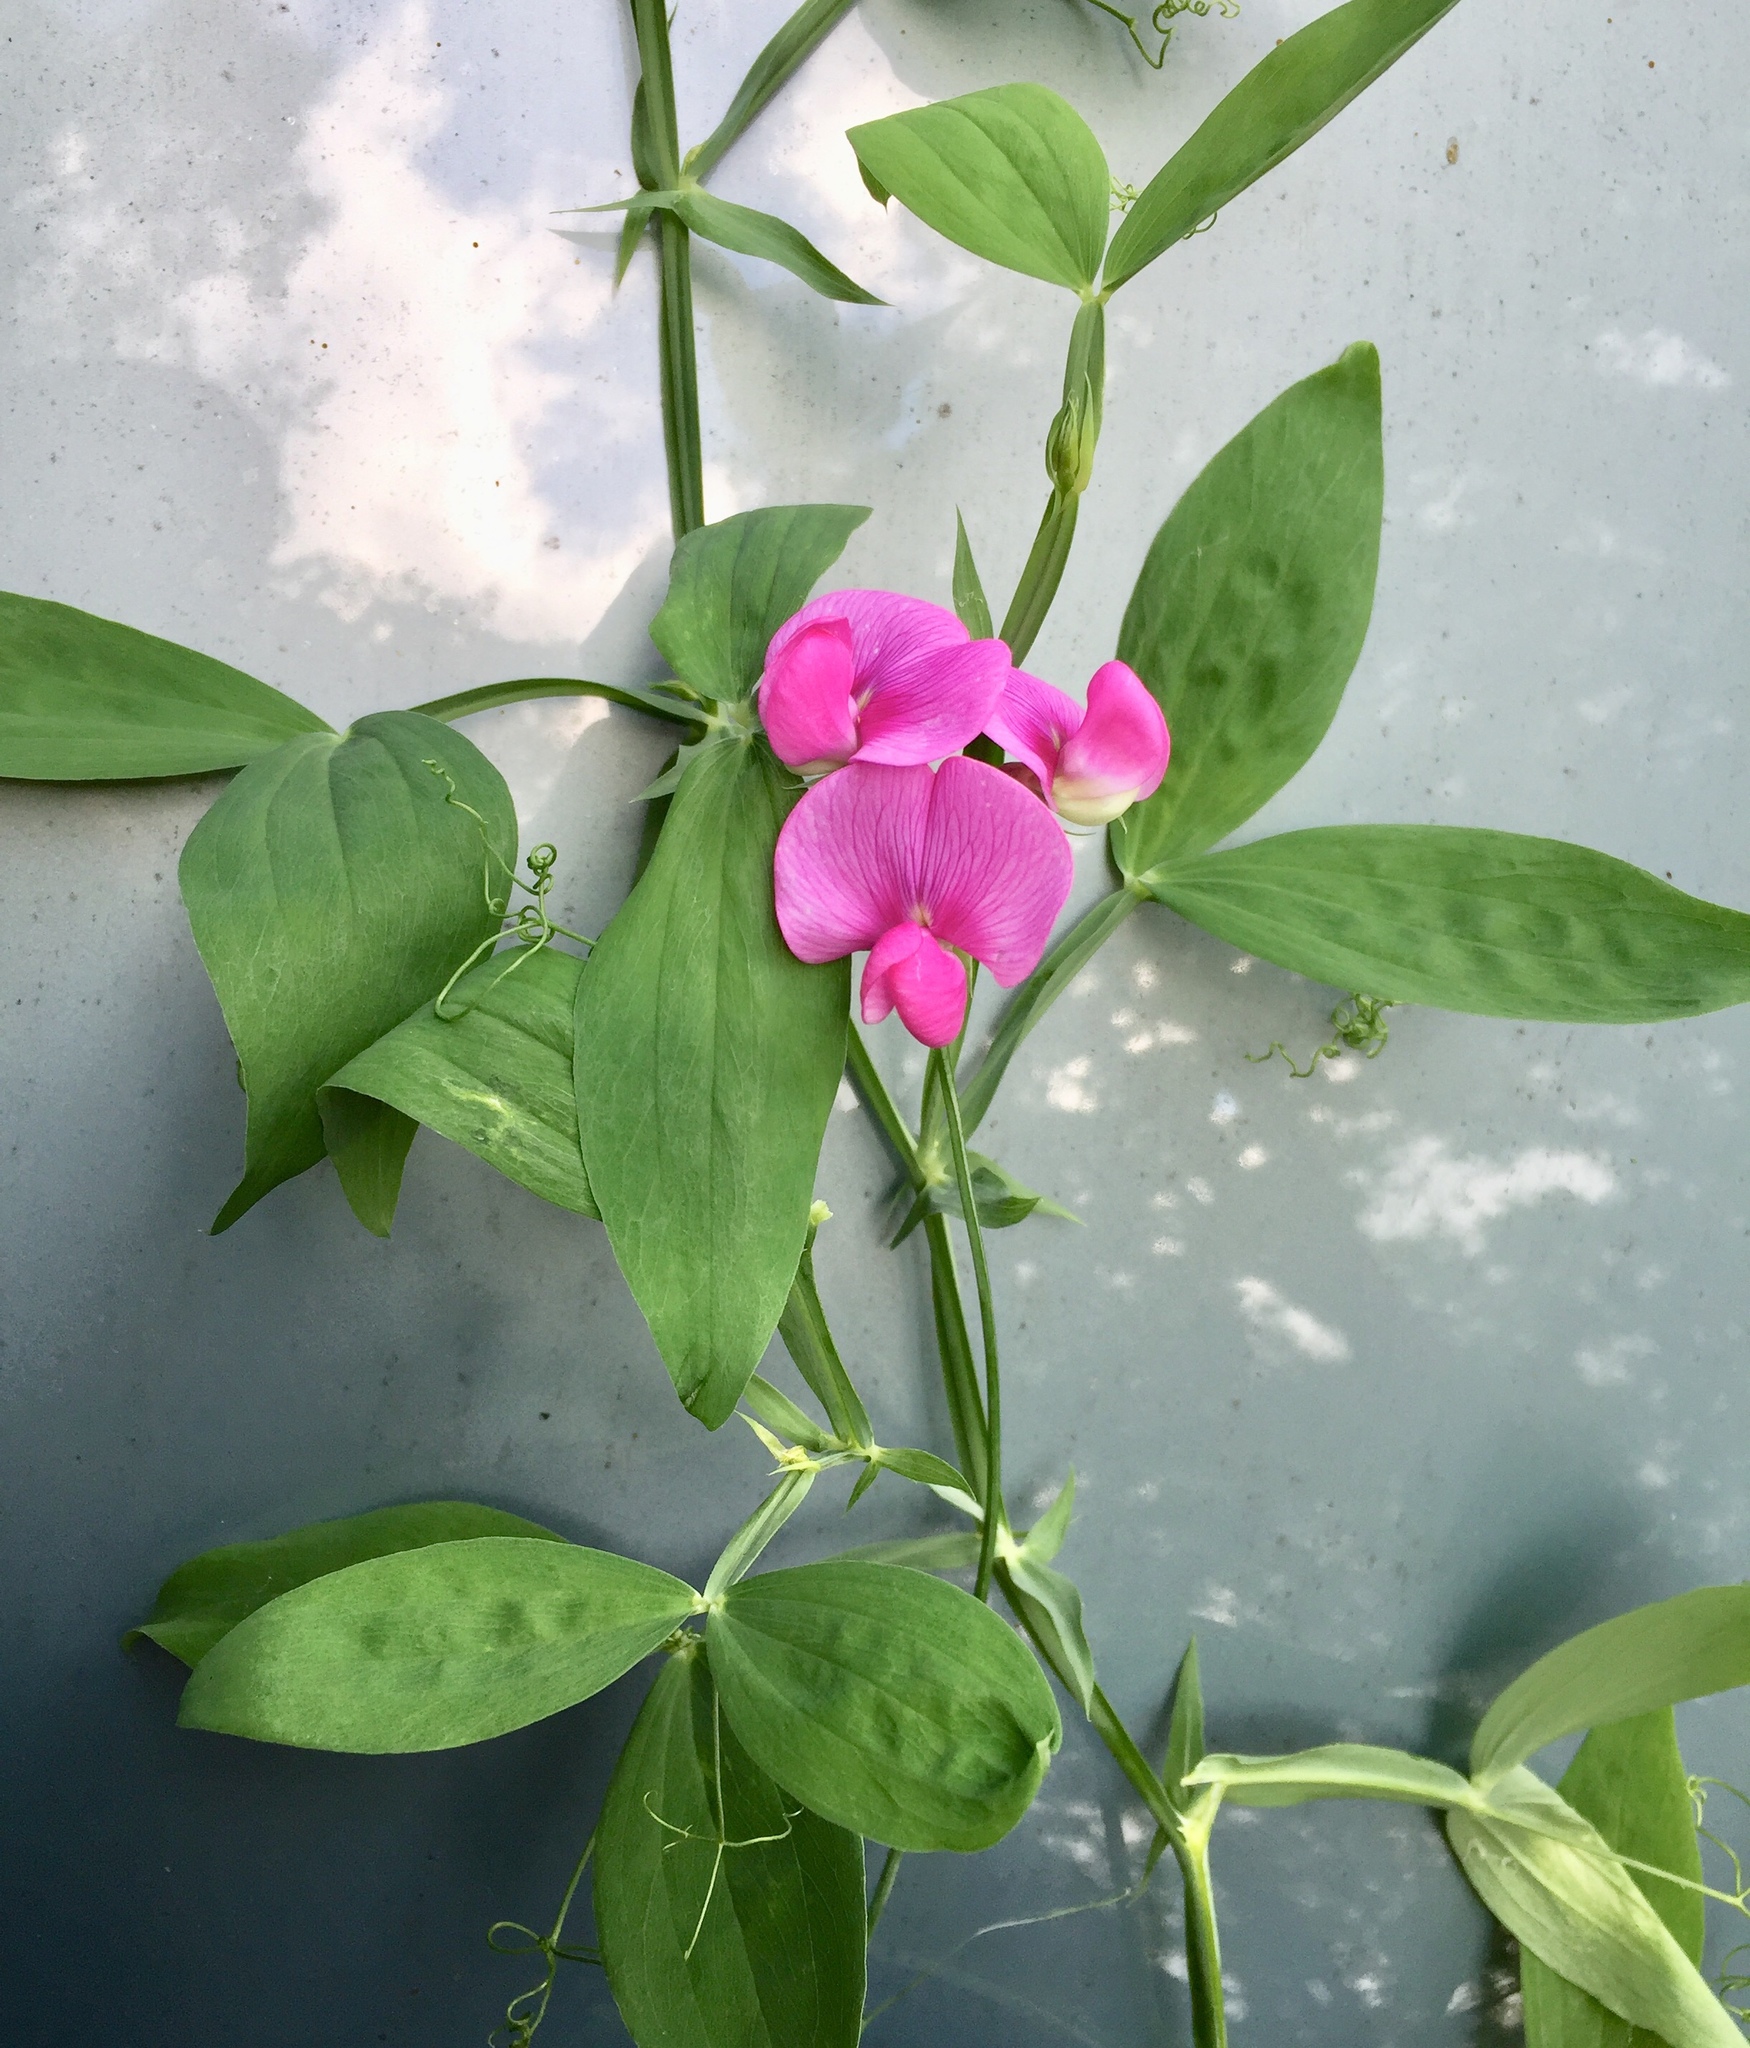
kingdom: Plantae
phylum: Tracheophyta
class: Magnoliopsida
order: Fabales
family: Fabaceae
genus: Lathyrus
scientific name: Lathyrus latifolius
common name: Perennial pea
